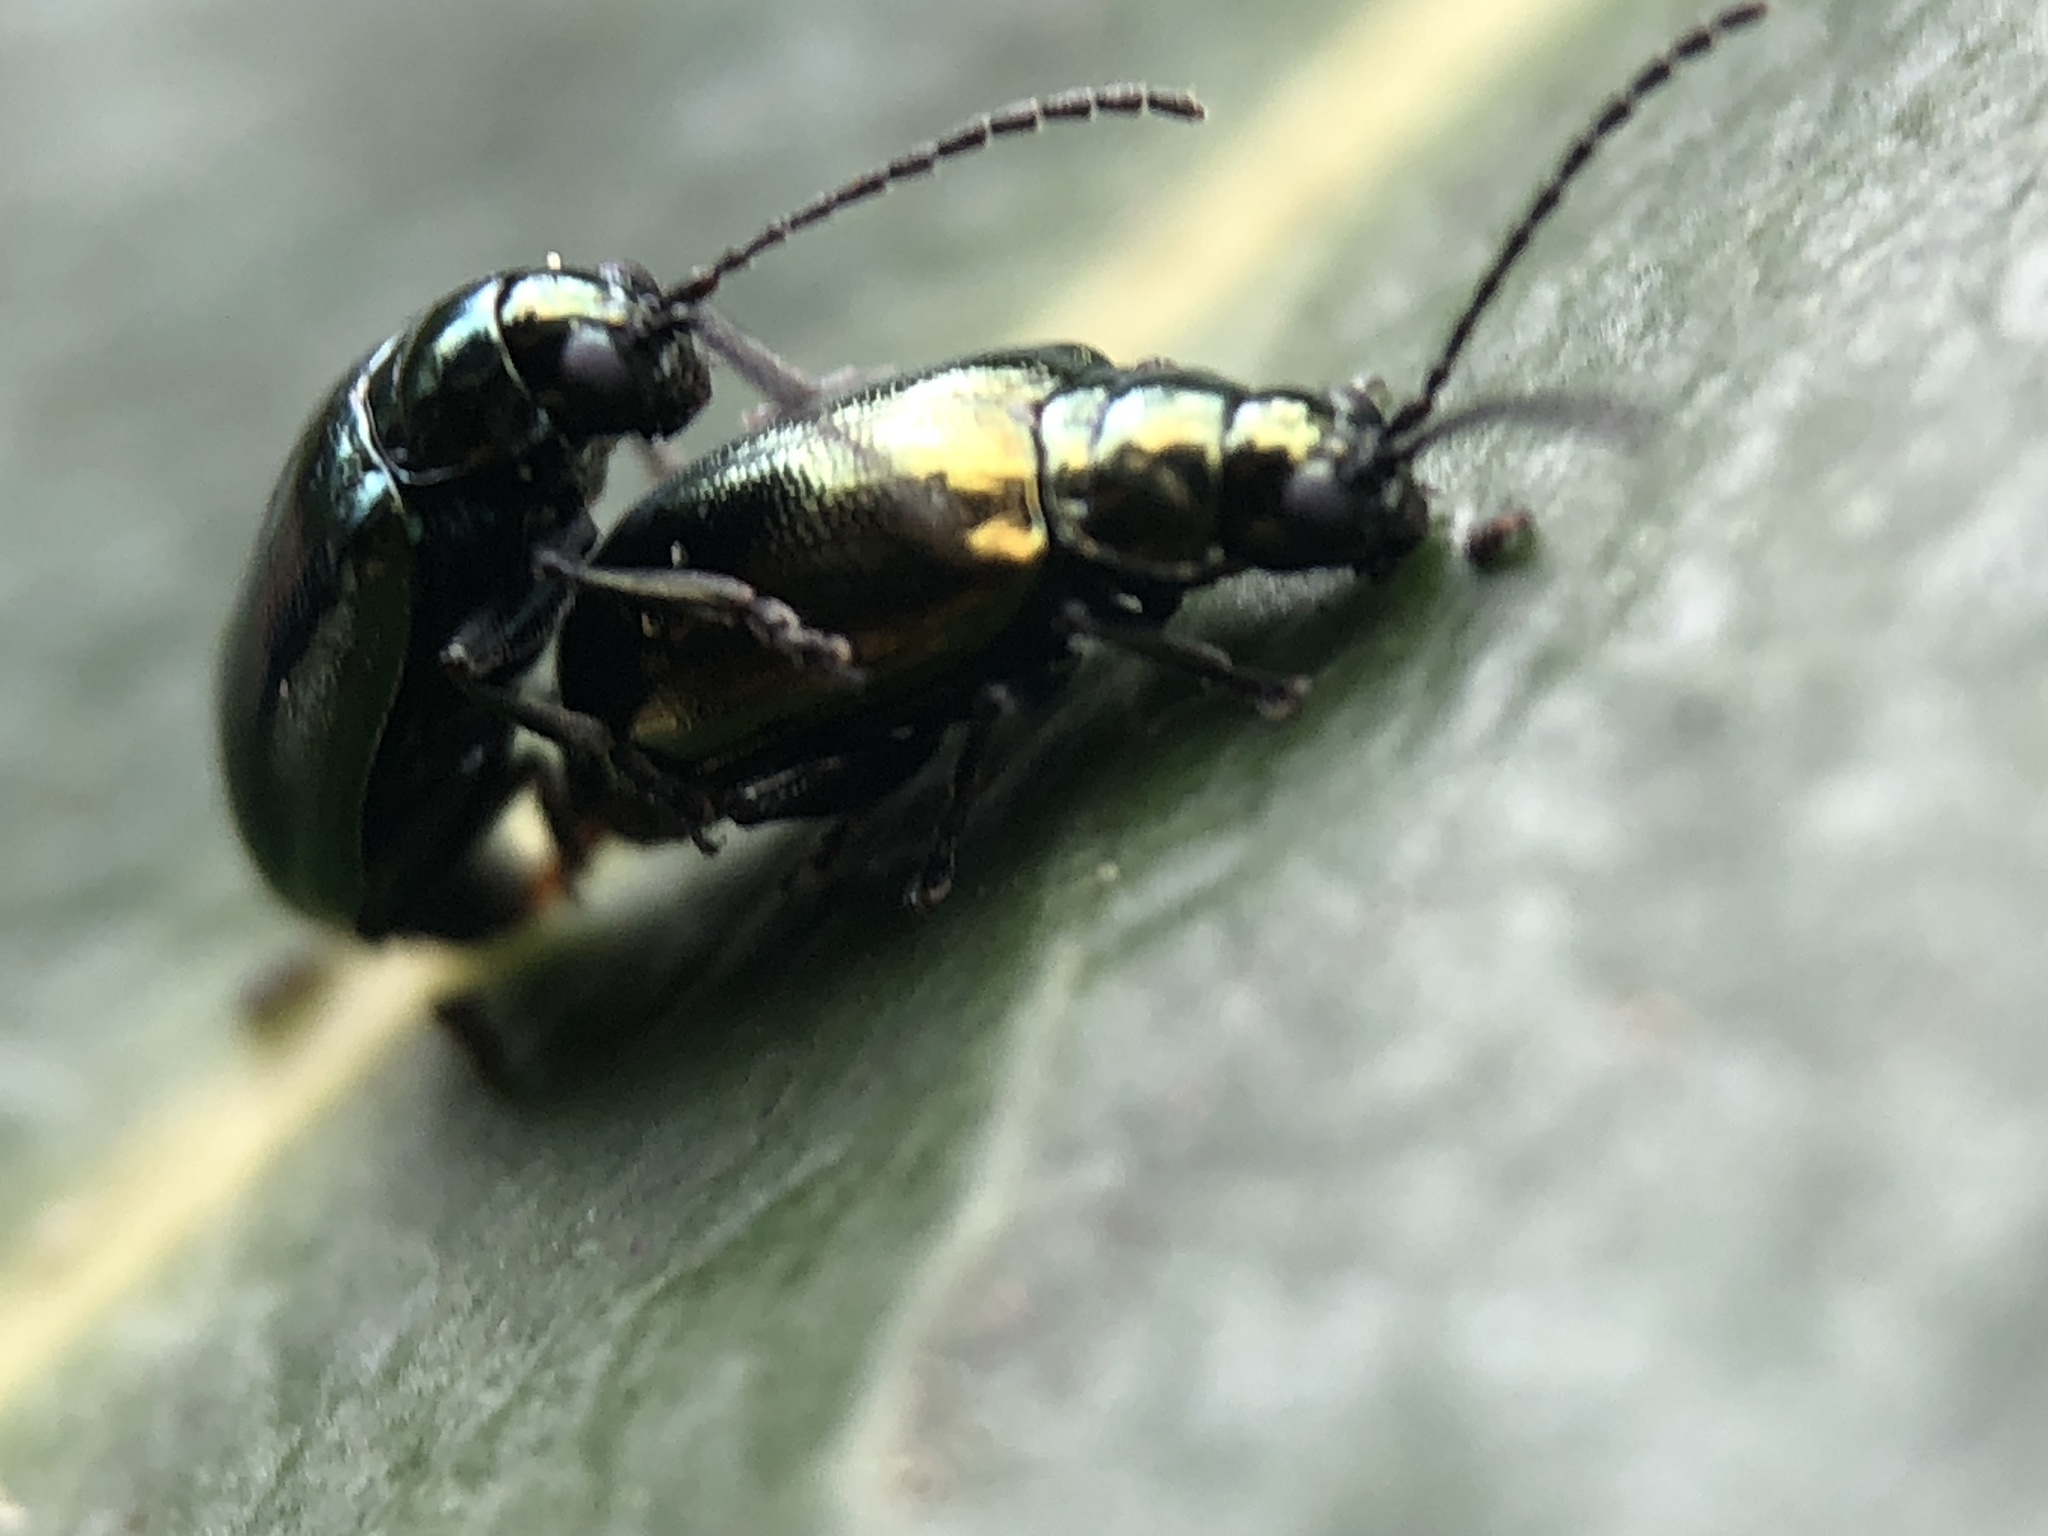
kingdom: Animalia
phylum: Arthropoda
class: Insecta
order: Coleoptera
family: Chrysomelidae
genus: Altica
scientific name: Altica
